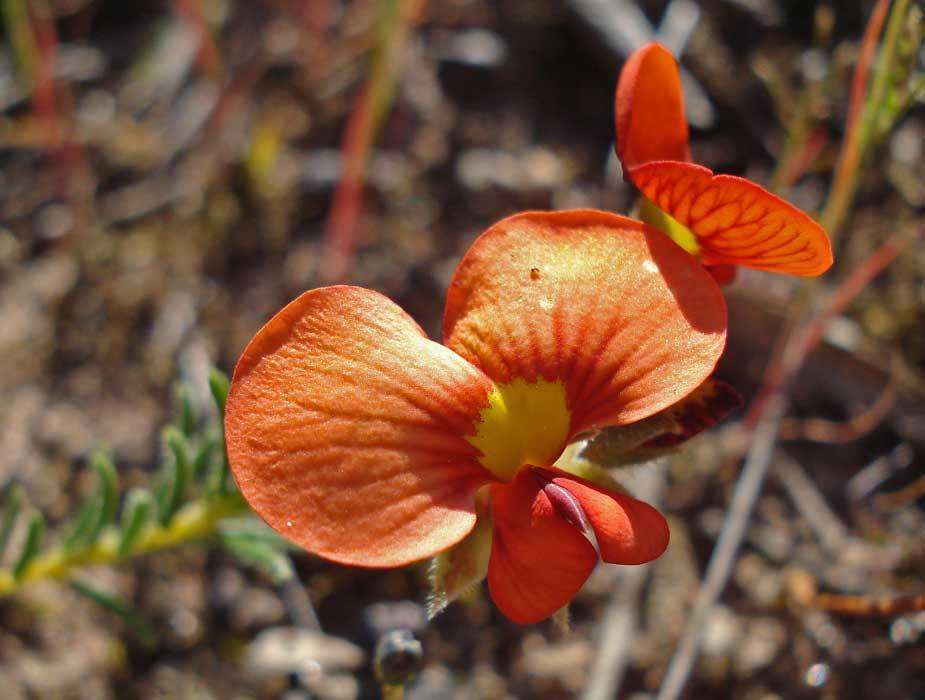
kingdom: Plantae
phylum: Tracheophyta
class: Magnoliopsida
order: Fabales
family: Fabaceae
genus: Dillwynia
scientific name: Dillwynia hispida
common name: Red parrot-pea
